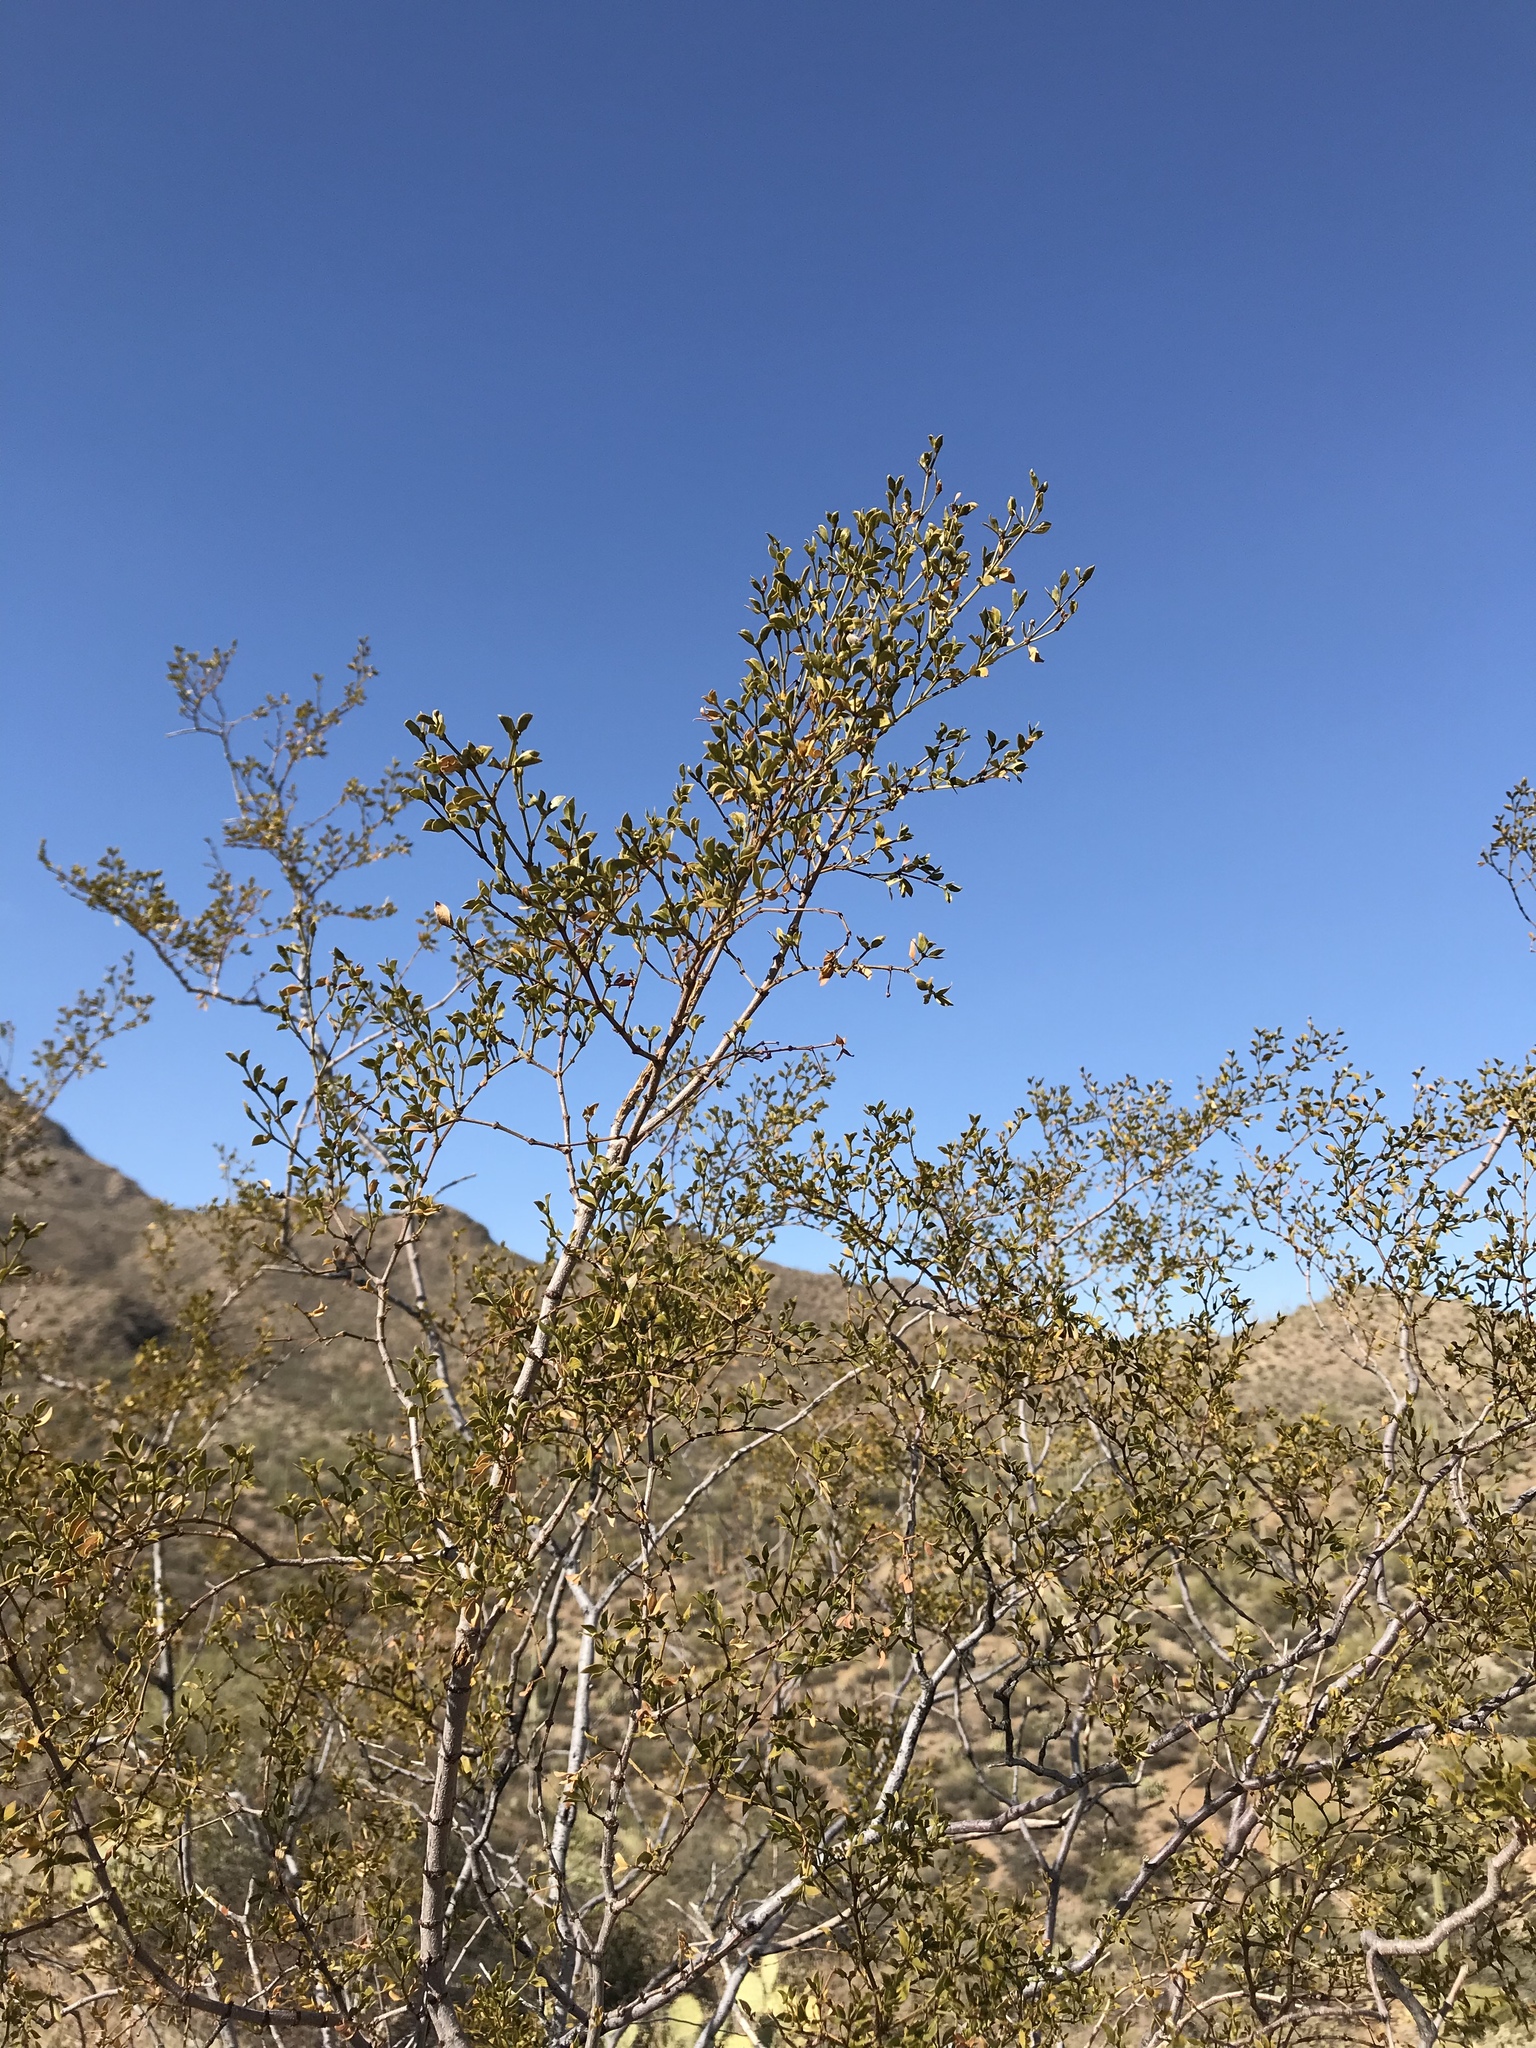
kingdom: Plantae
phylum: Tracheophyta
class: Magnoliopsida
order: Zygophyllales
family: Zygophyllaceae
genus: Larrea
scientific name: Larrea tridentata
